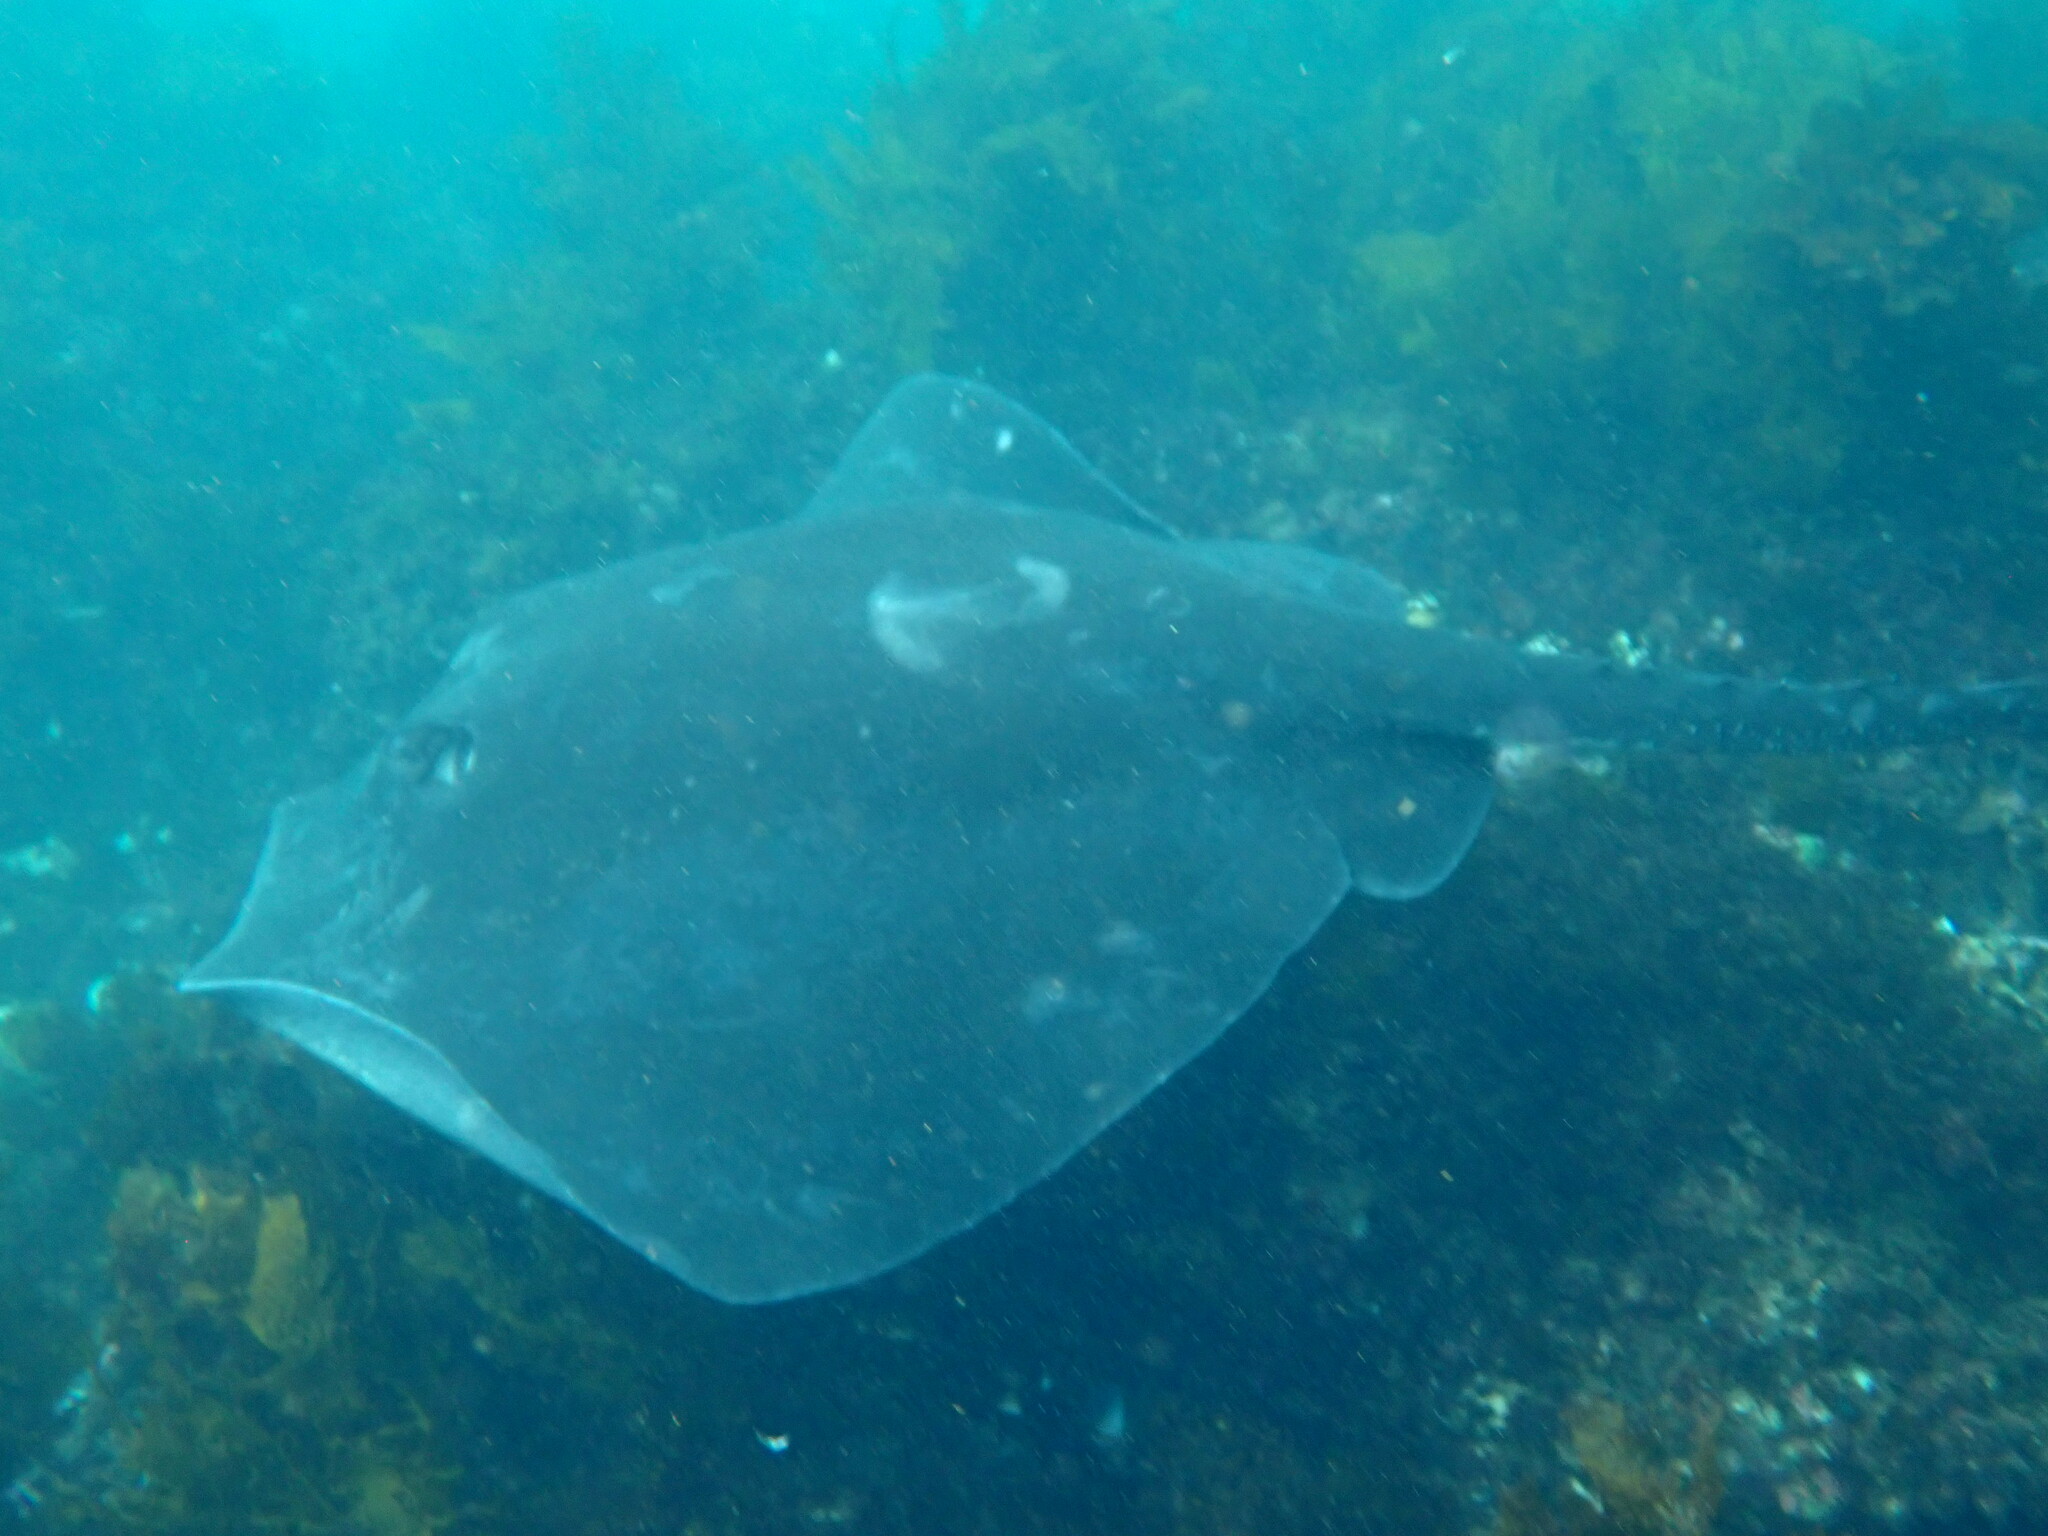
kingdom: Animalia
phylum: Chordata
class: Elasmobranchii
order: Myliobatiformes
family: Dasyatidae
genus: Bathytoshia
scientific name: Bathytoshia brevicaudata
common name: Short-tail stingray
